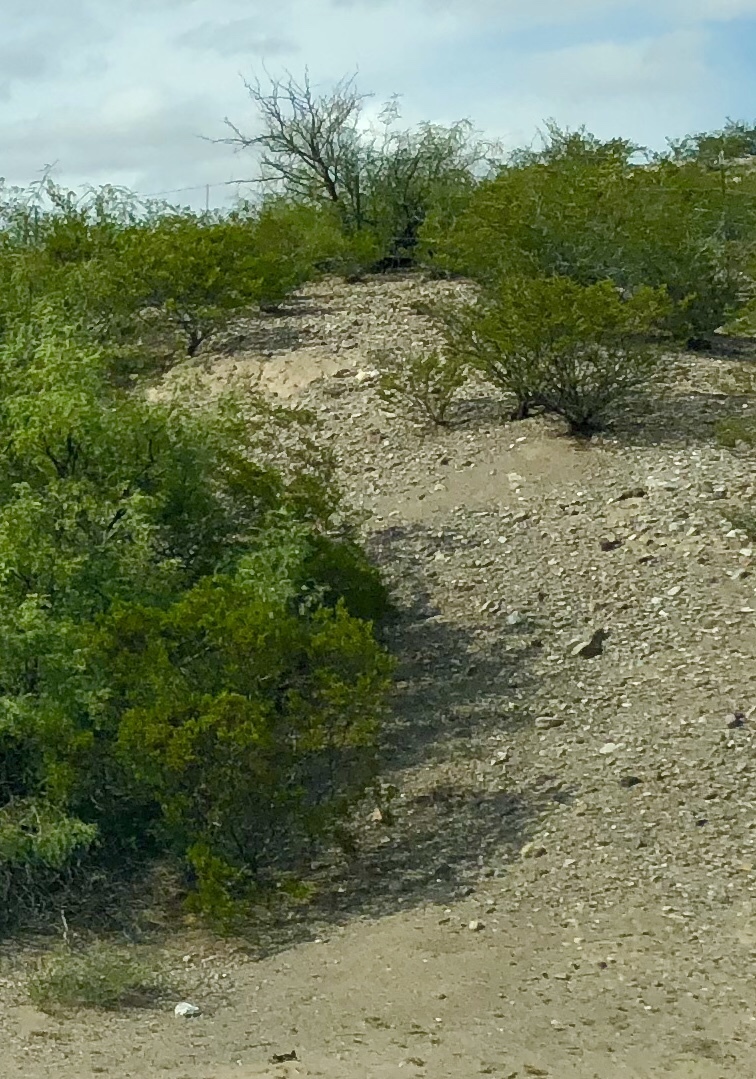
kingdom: Plantae
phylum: Tracheophyta
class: Magnoliopsida
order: Zygophyllales
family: Zygophyllaceae
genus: Larrea
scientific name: Larrea tridentata
